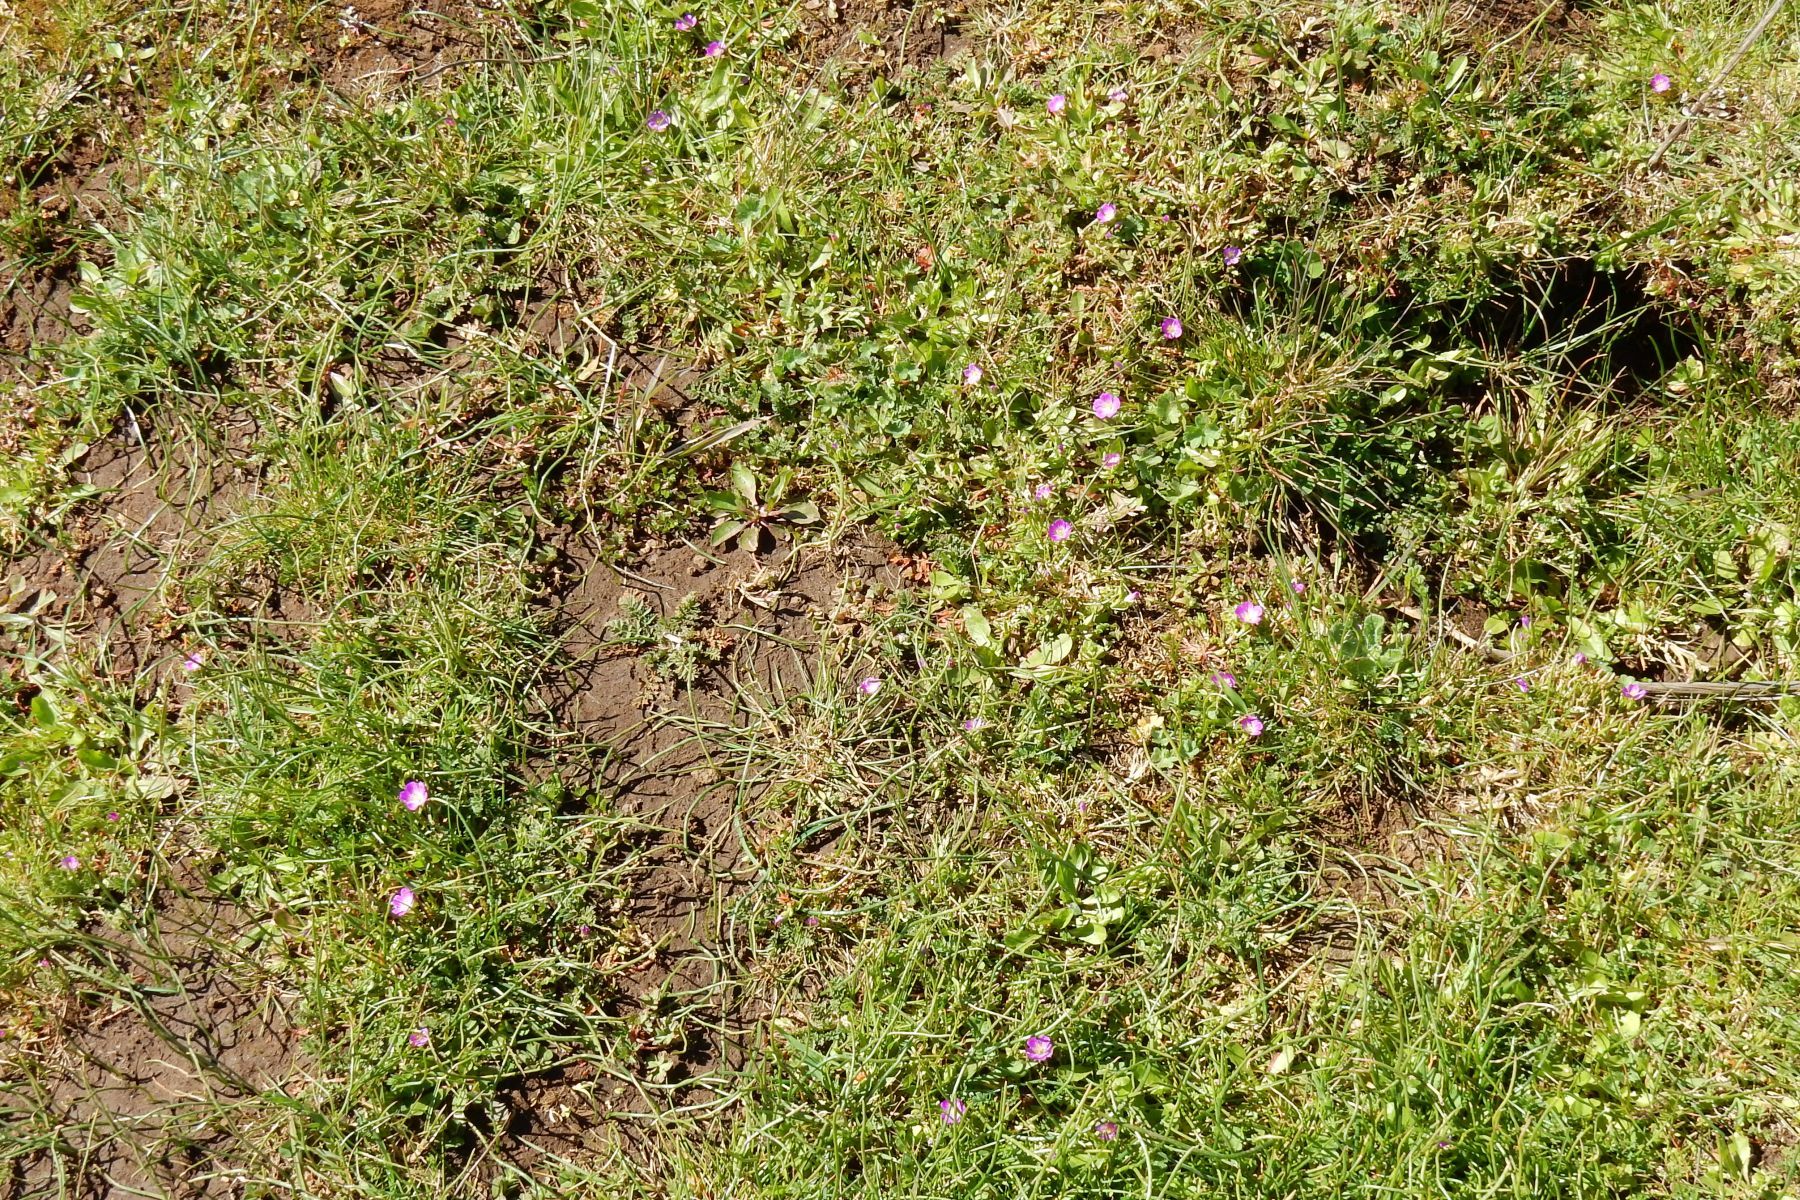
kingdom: Plantae
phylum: Tracheophyta
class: Magnoliopsida
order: Caryophyllales
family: Montiaceae
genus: Calandrinia
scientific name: Calandrinia menziesii
